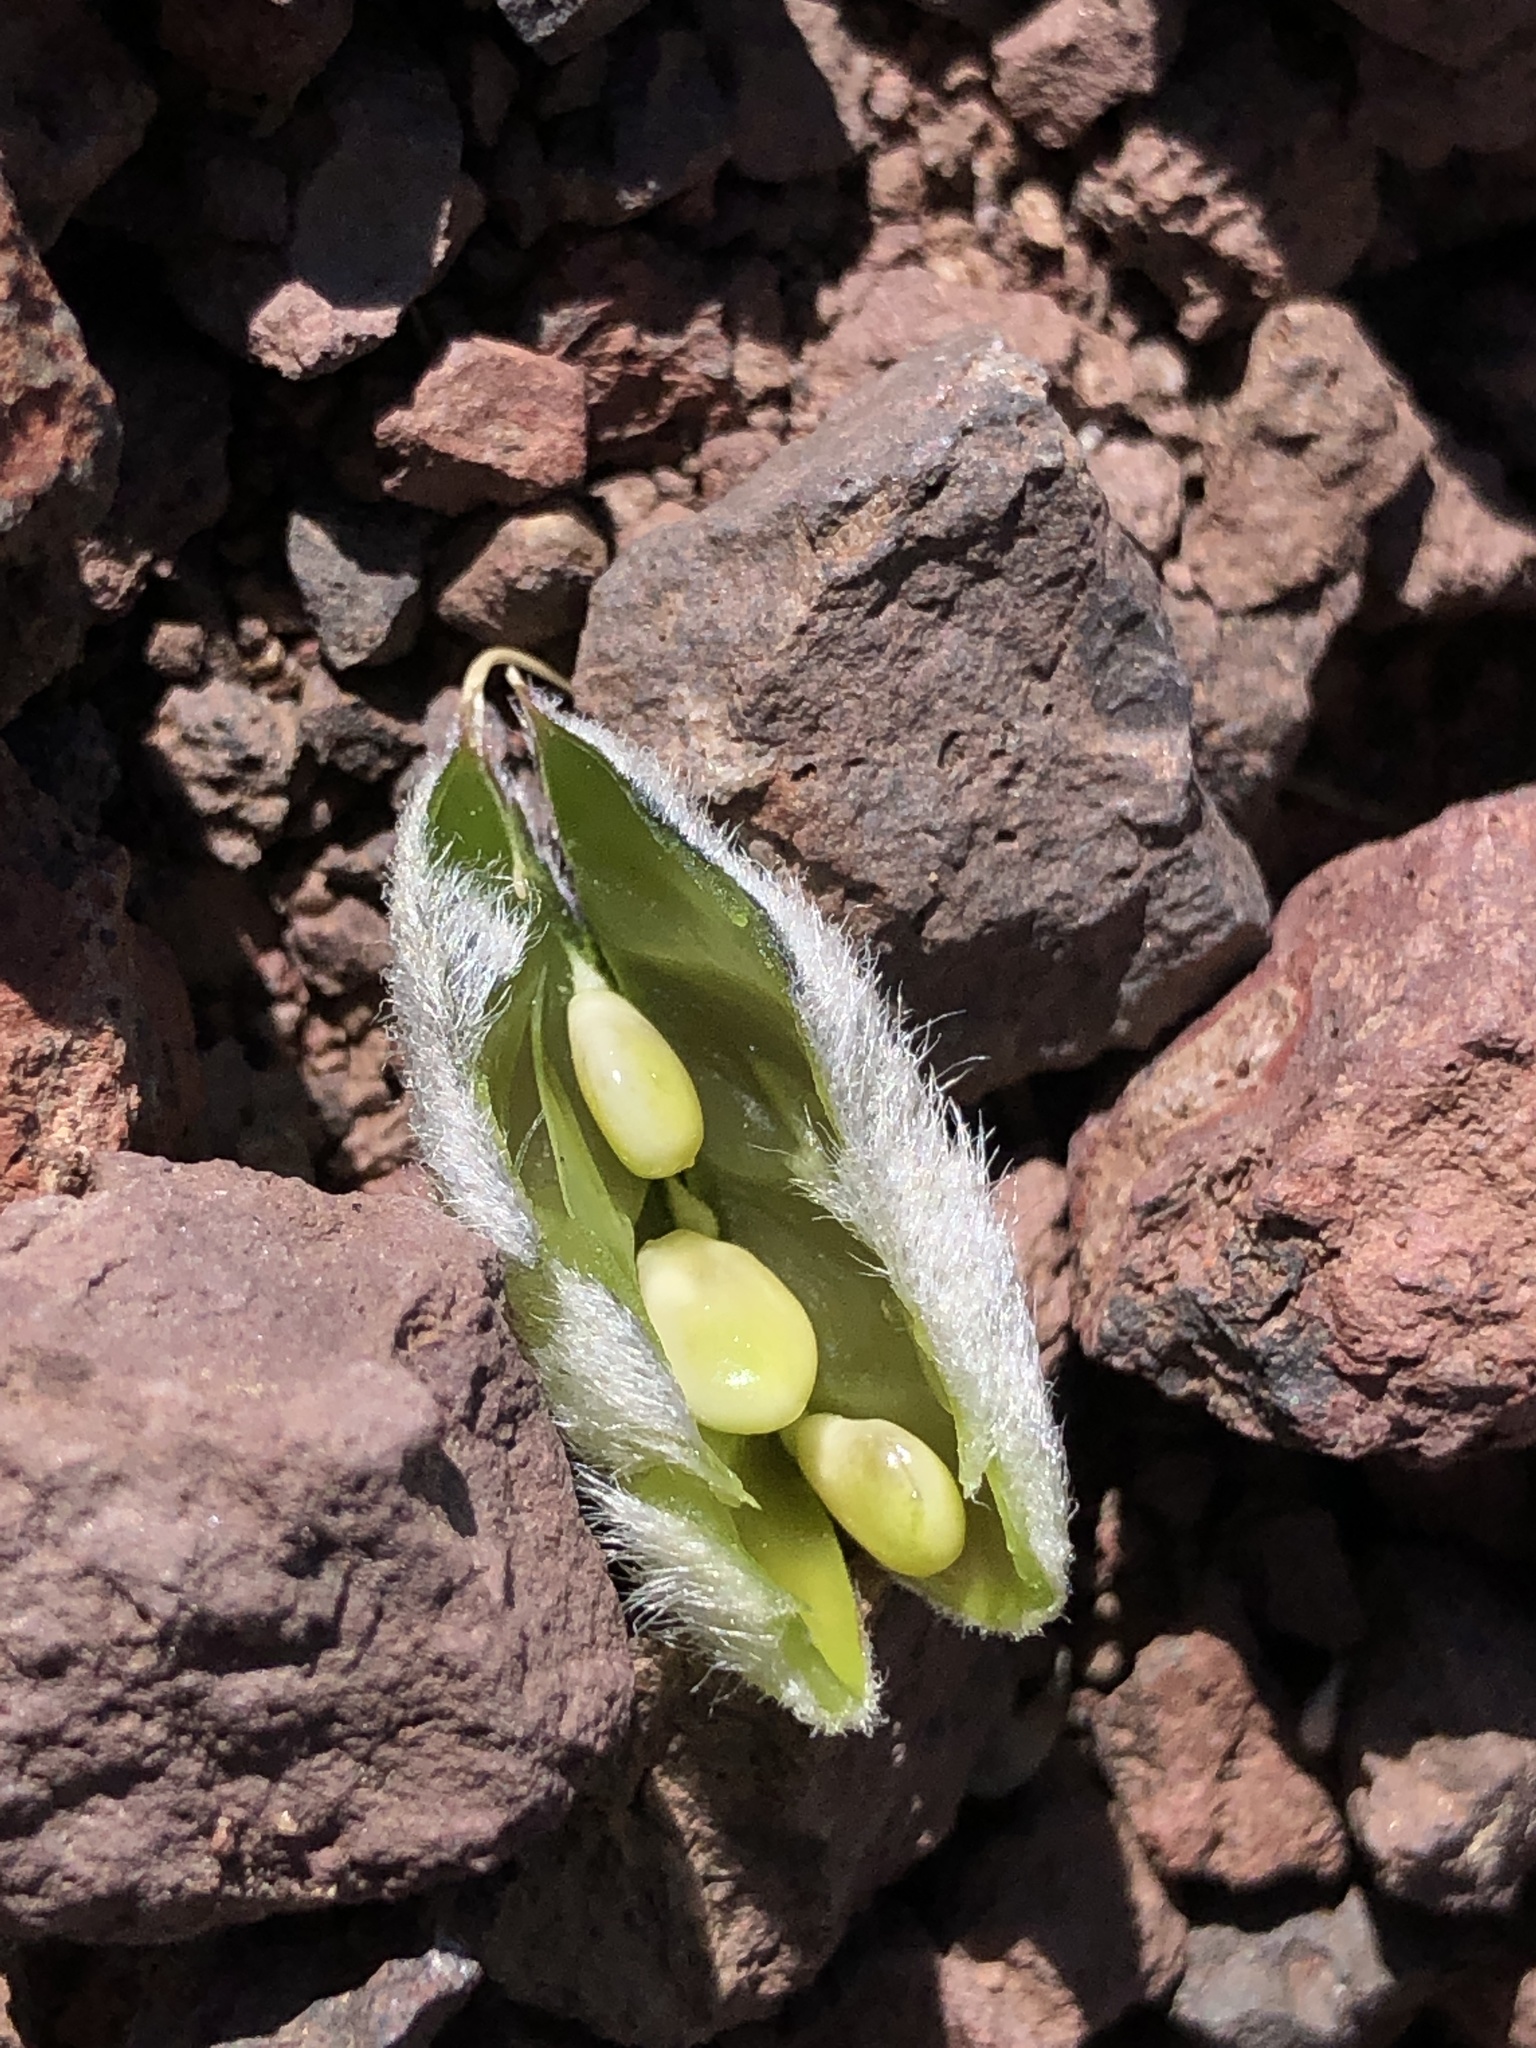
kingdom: Plantae
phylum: Tracheophyta
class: Magnoliopsida
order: Fabales
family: Fabaceae
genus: Lupinus
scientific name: Lupinus meionanthus
